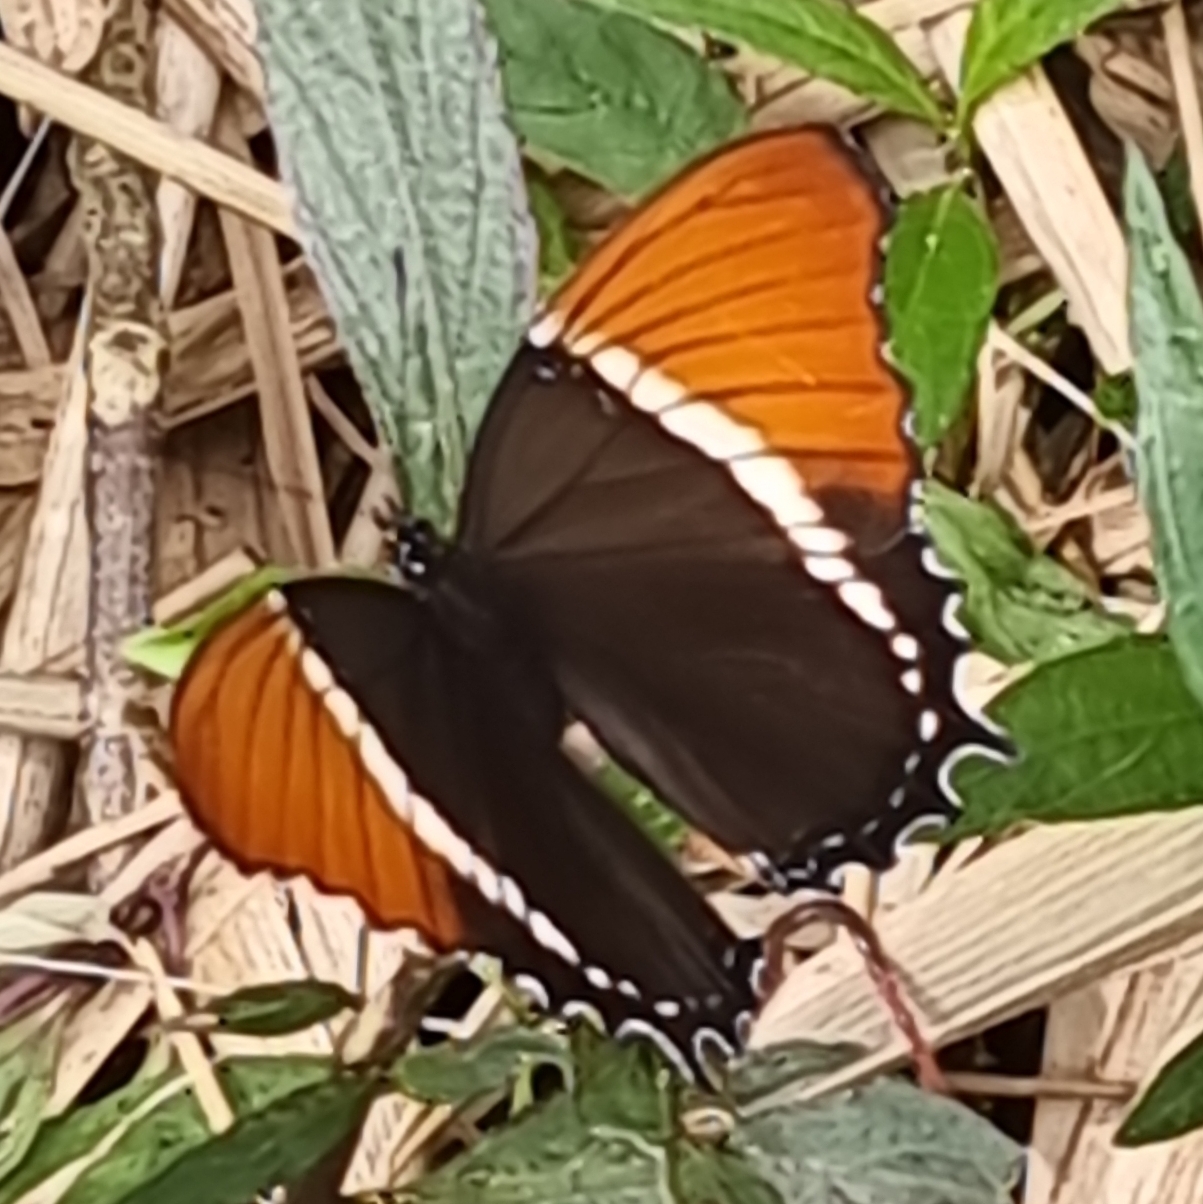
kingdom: Animalia
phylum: Arthropoda
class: Insecta
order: Lepidoptera
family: Nymphalidae
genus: Siproeta
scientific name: Siproeta epaphus
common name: Rusty-tipped page
